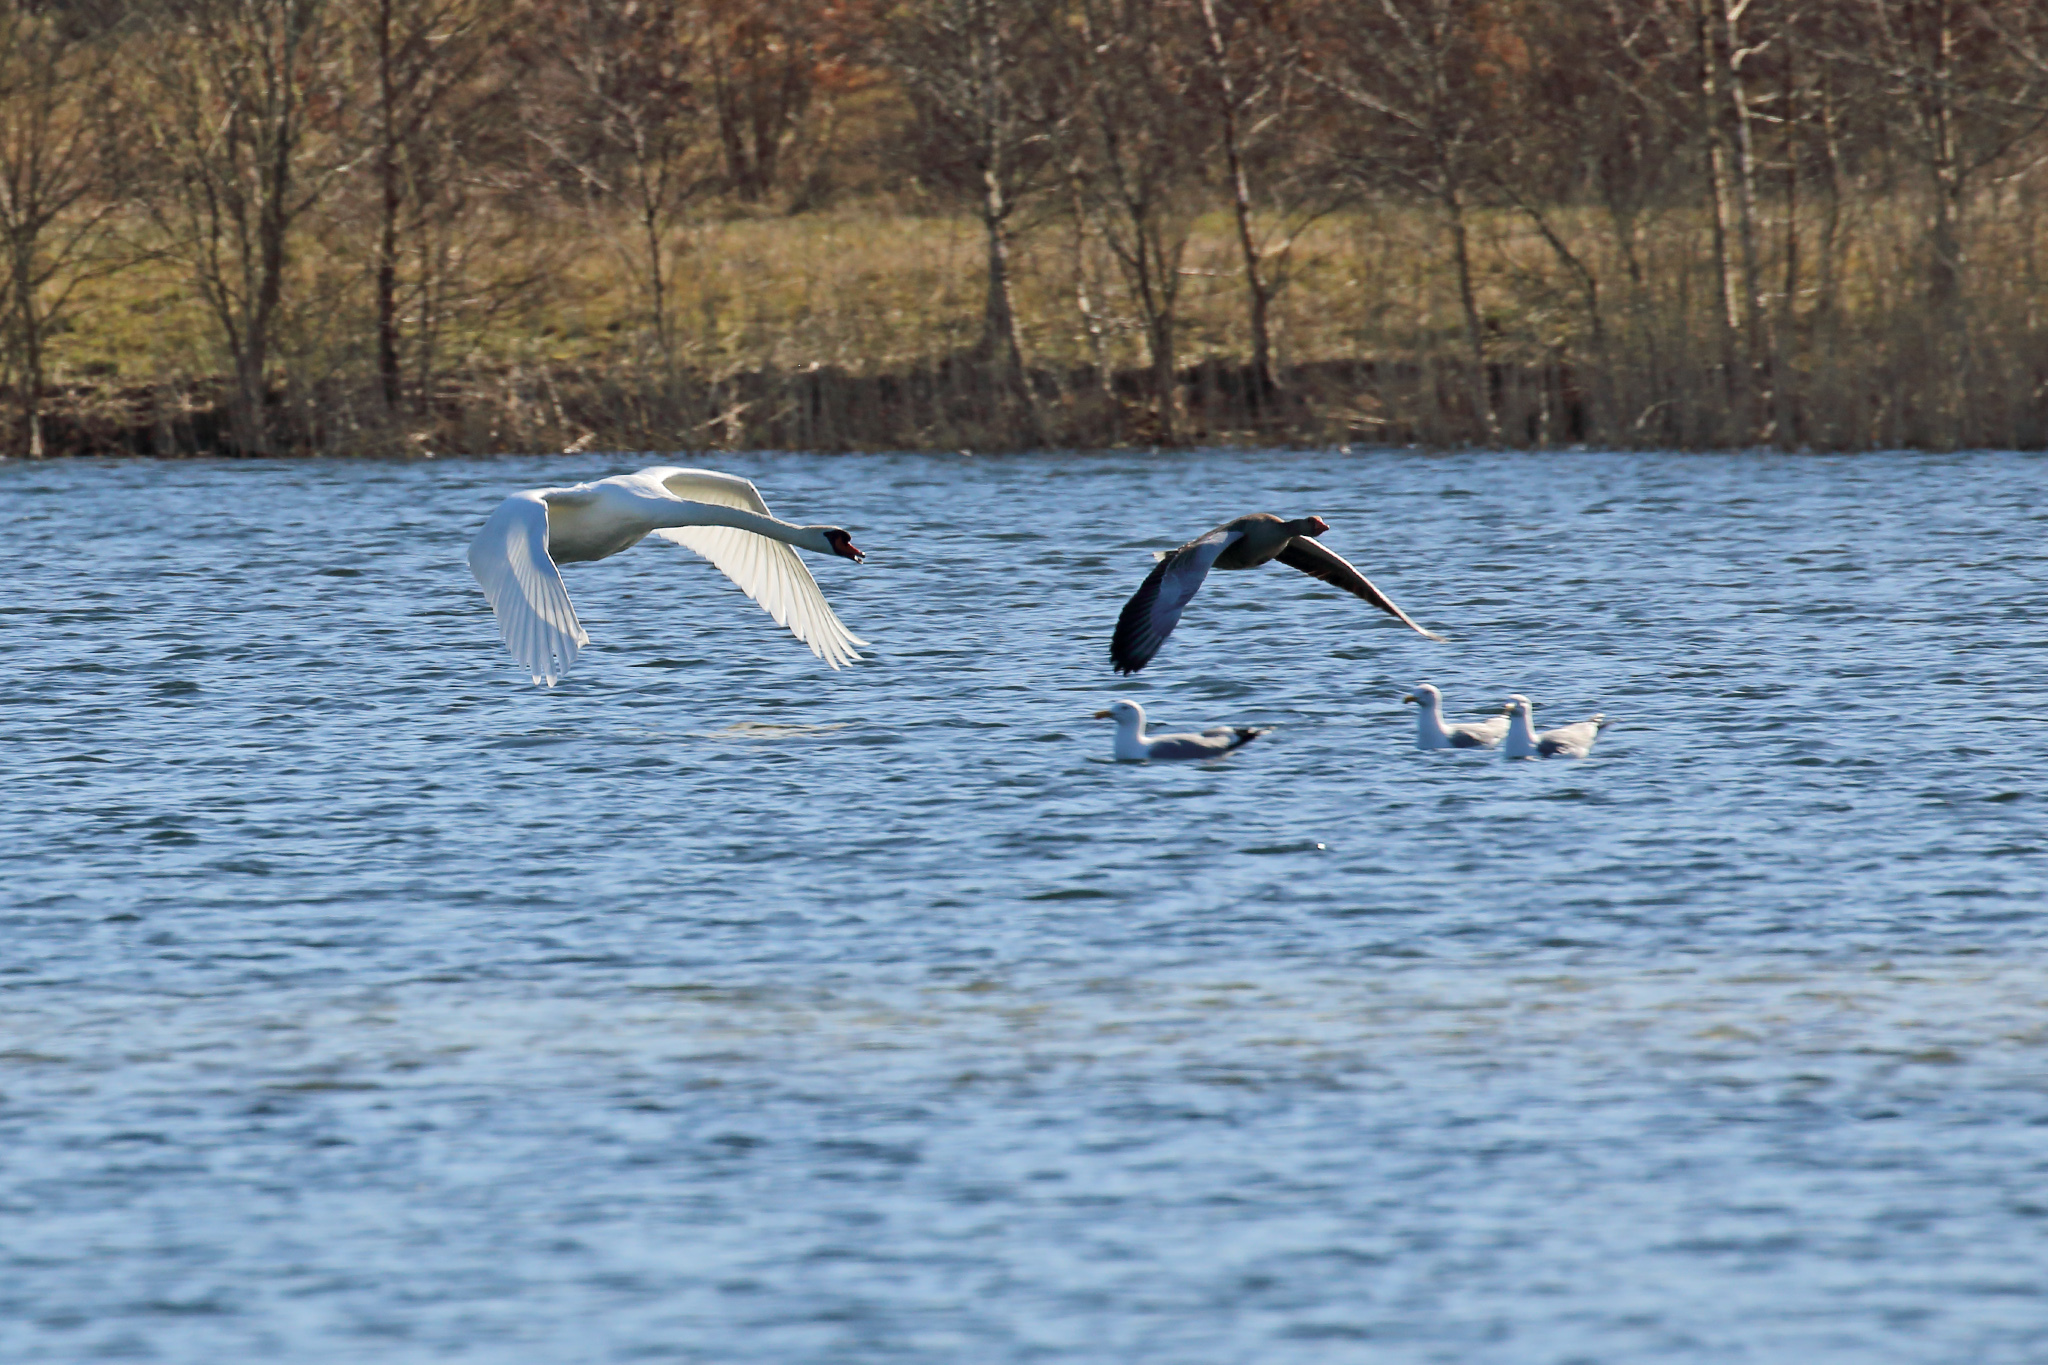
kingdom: Animalia
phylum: Chordata
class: Aves
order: Anseriformes
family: Anatidae
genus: Cygnus
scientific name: Cygnus olor
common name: Mute swan
